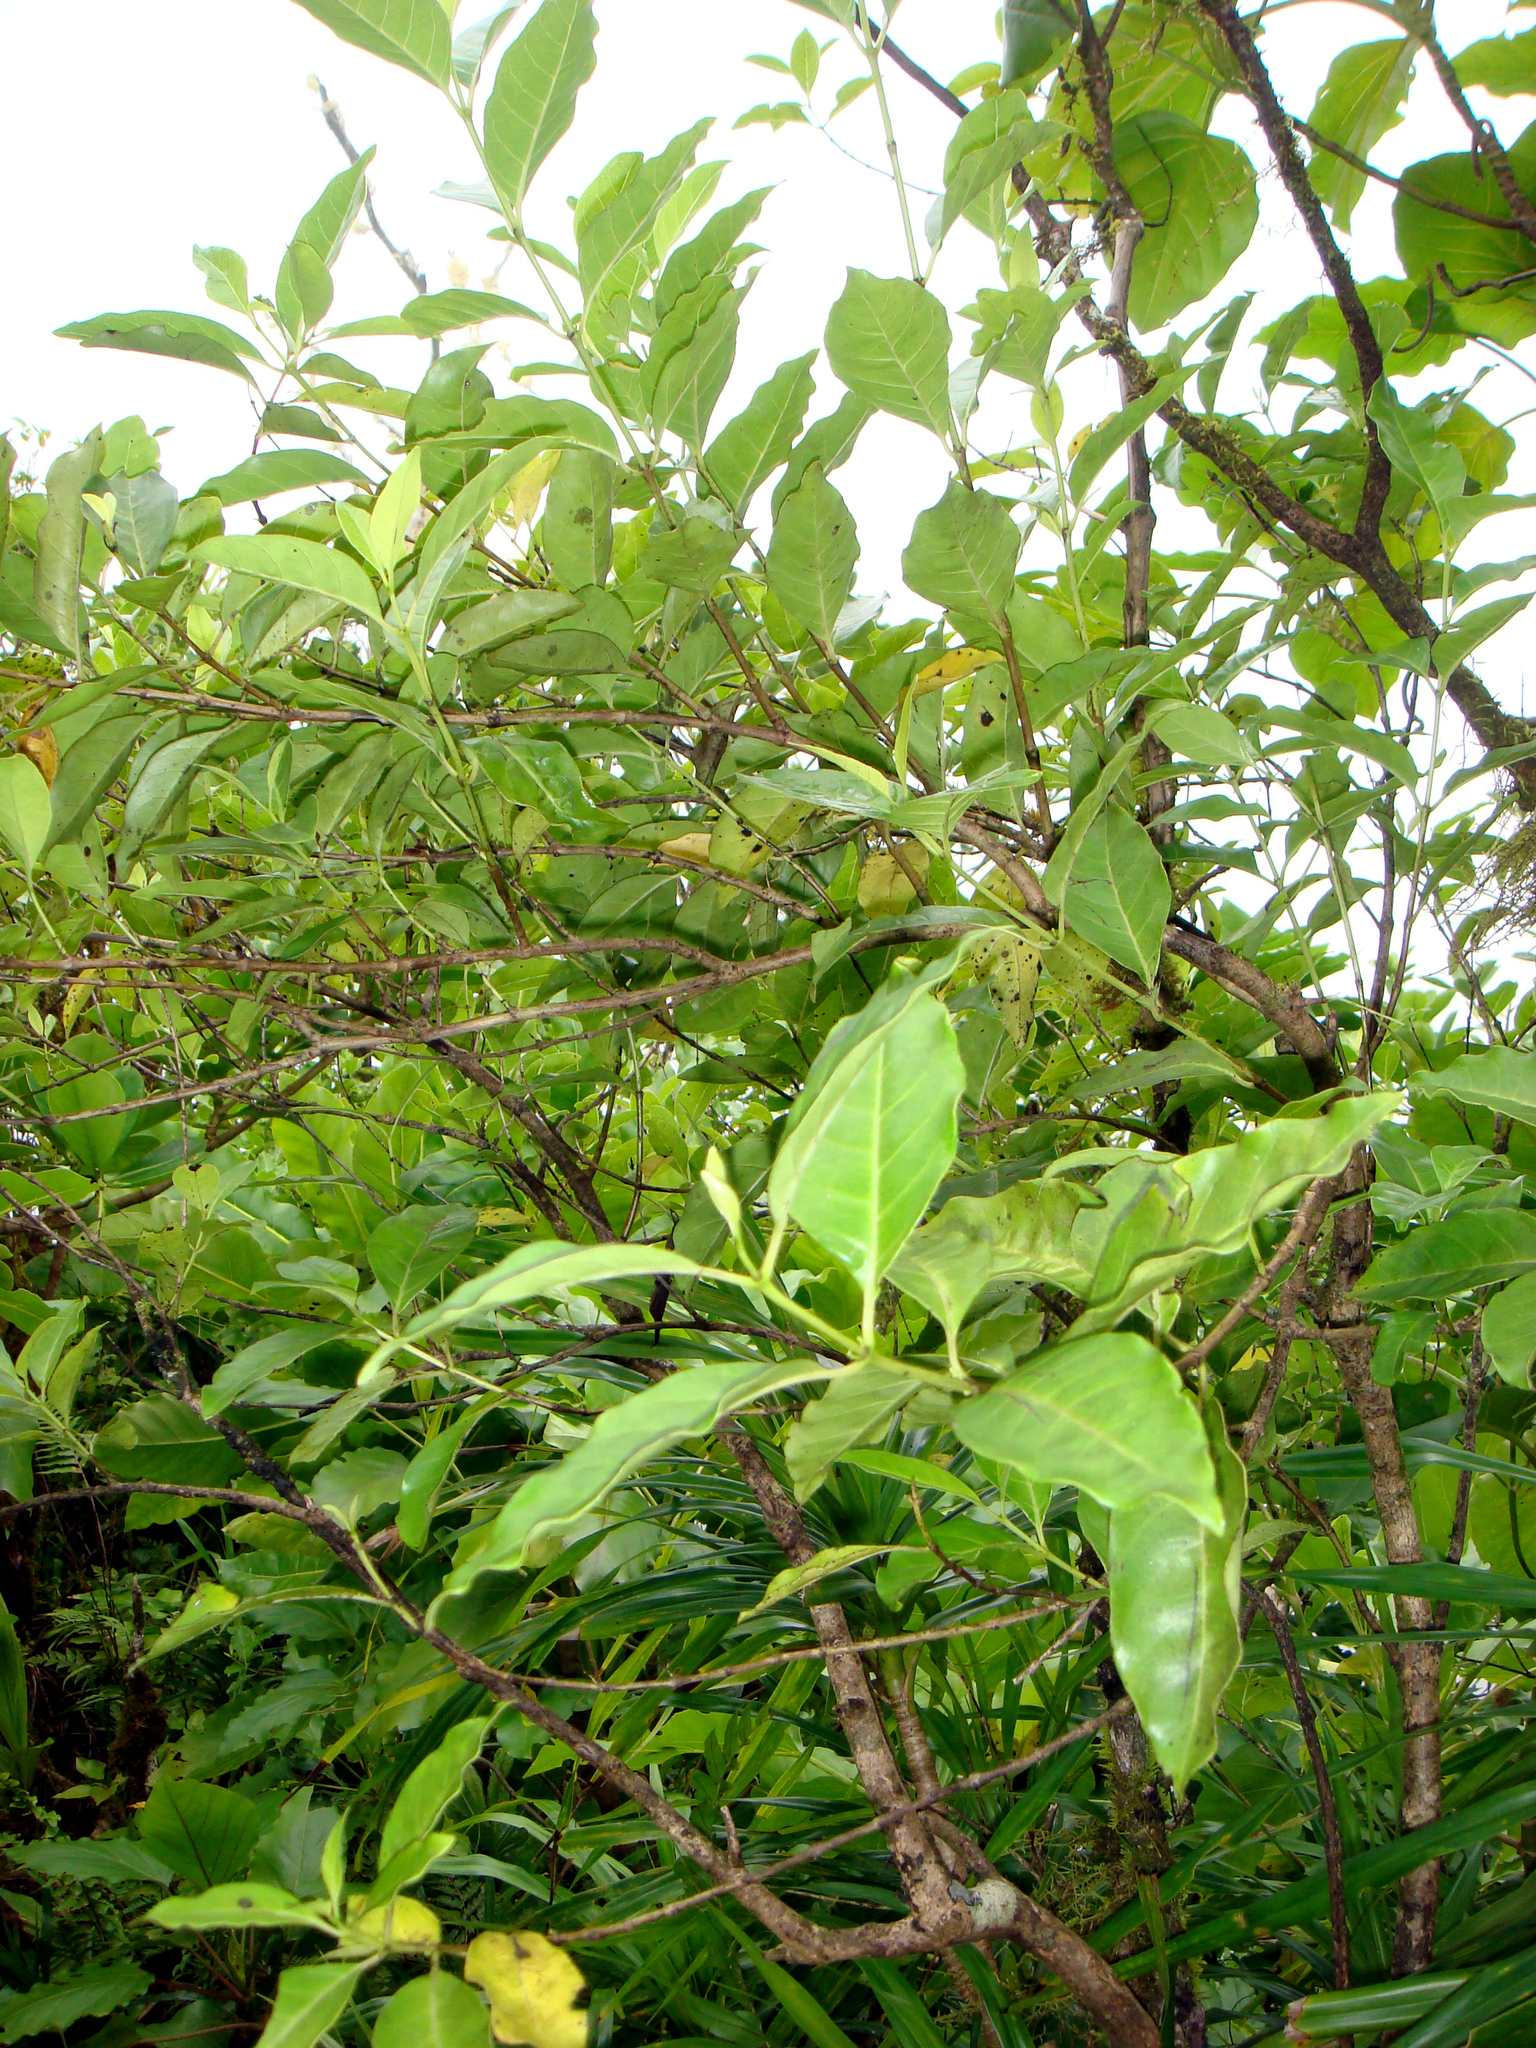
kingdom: Plantae
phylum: Tracheophyta
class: Magnoliopsida
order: Gentianales
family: Loganiaceae
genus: Geniostoma
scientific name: Geniostoma rarotongense
